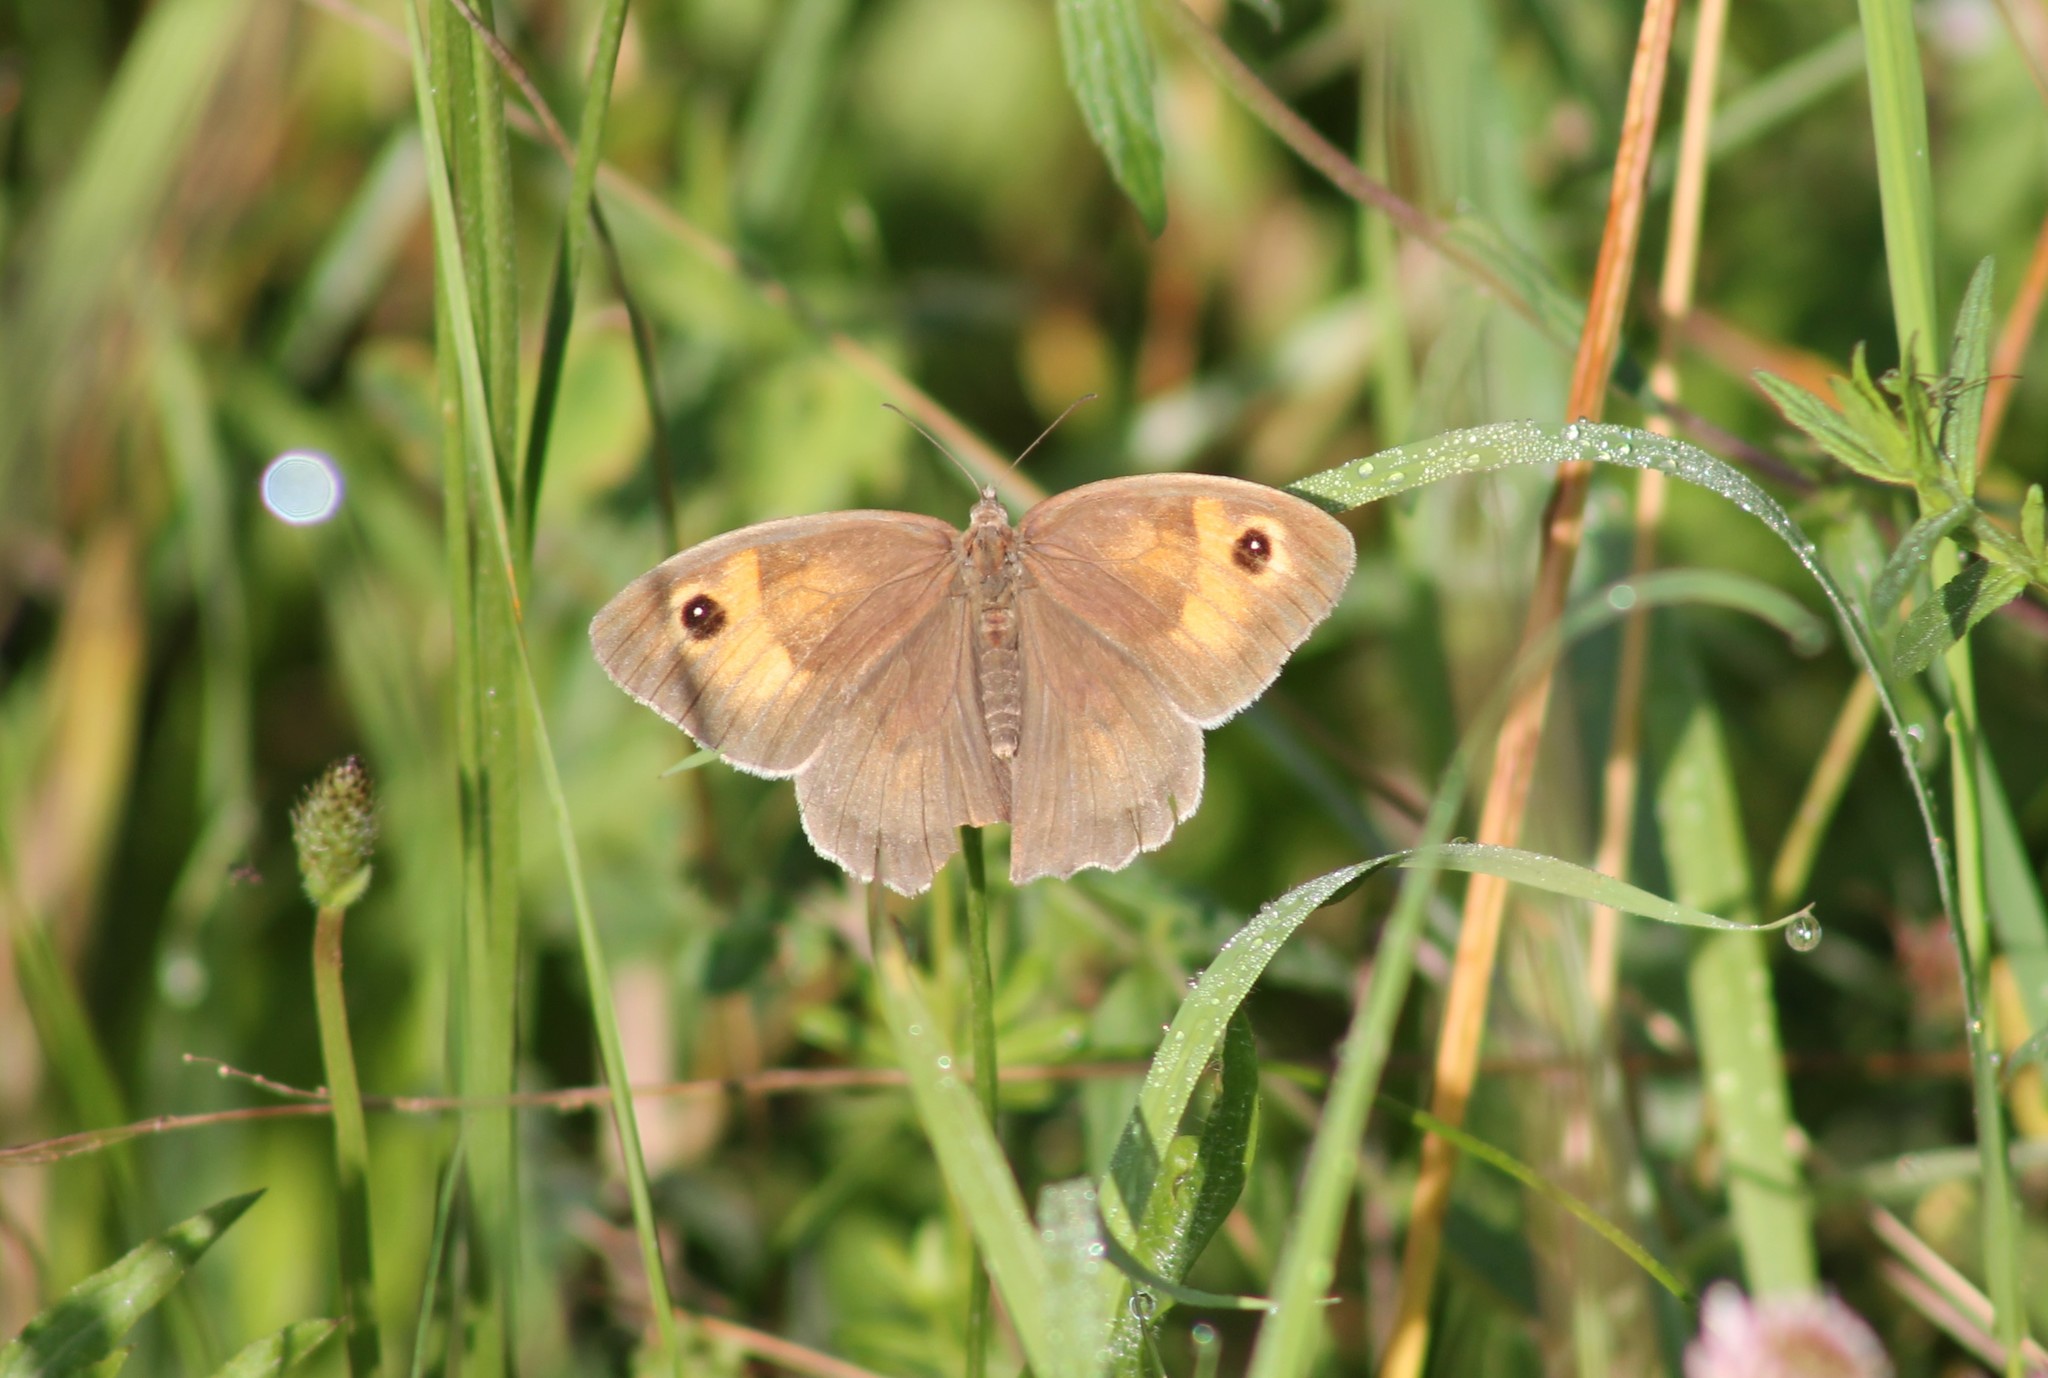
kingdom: Animalia
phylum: Arthropoda
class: Insecta
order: Lepidoptera
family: Nymphalidae
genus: Maniola
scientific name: Maniola jurtina
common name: Meadow brown
